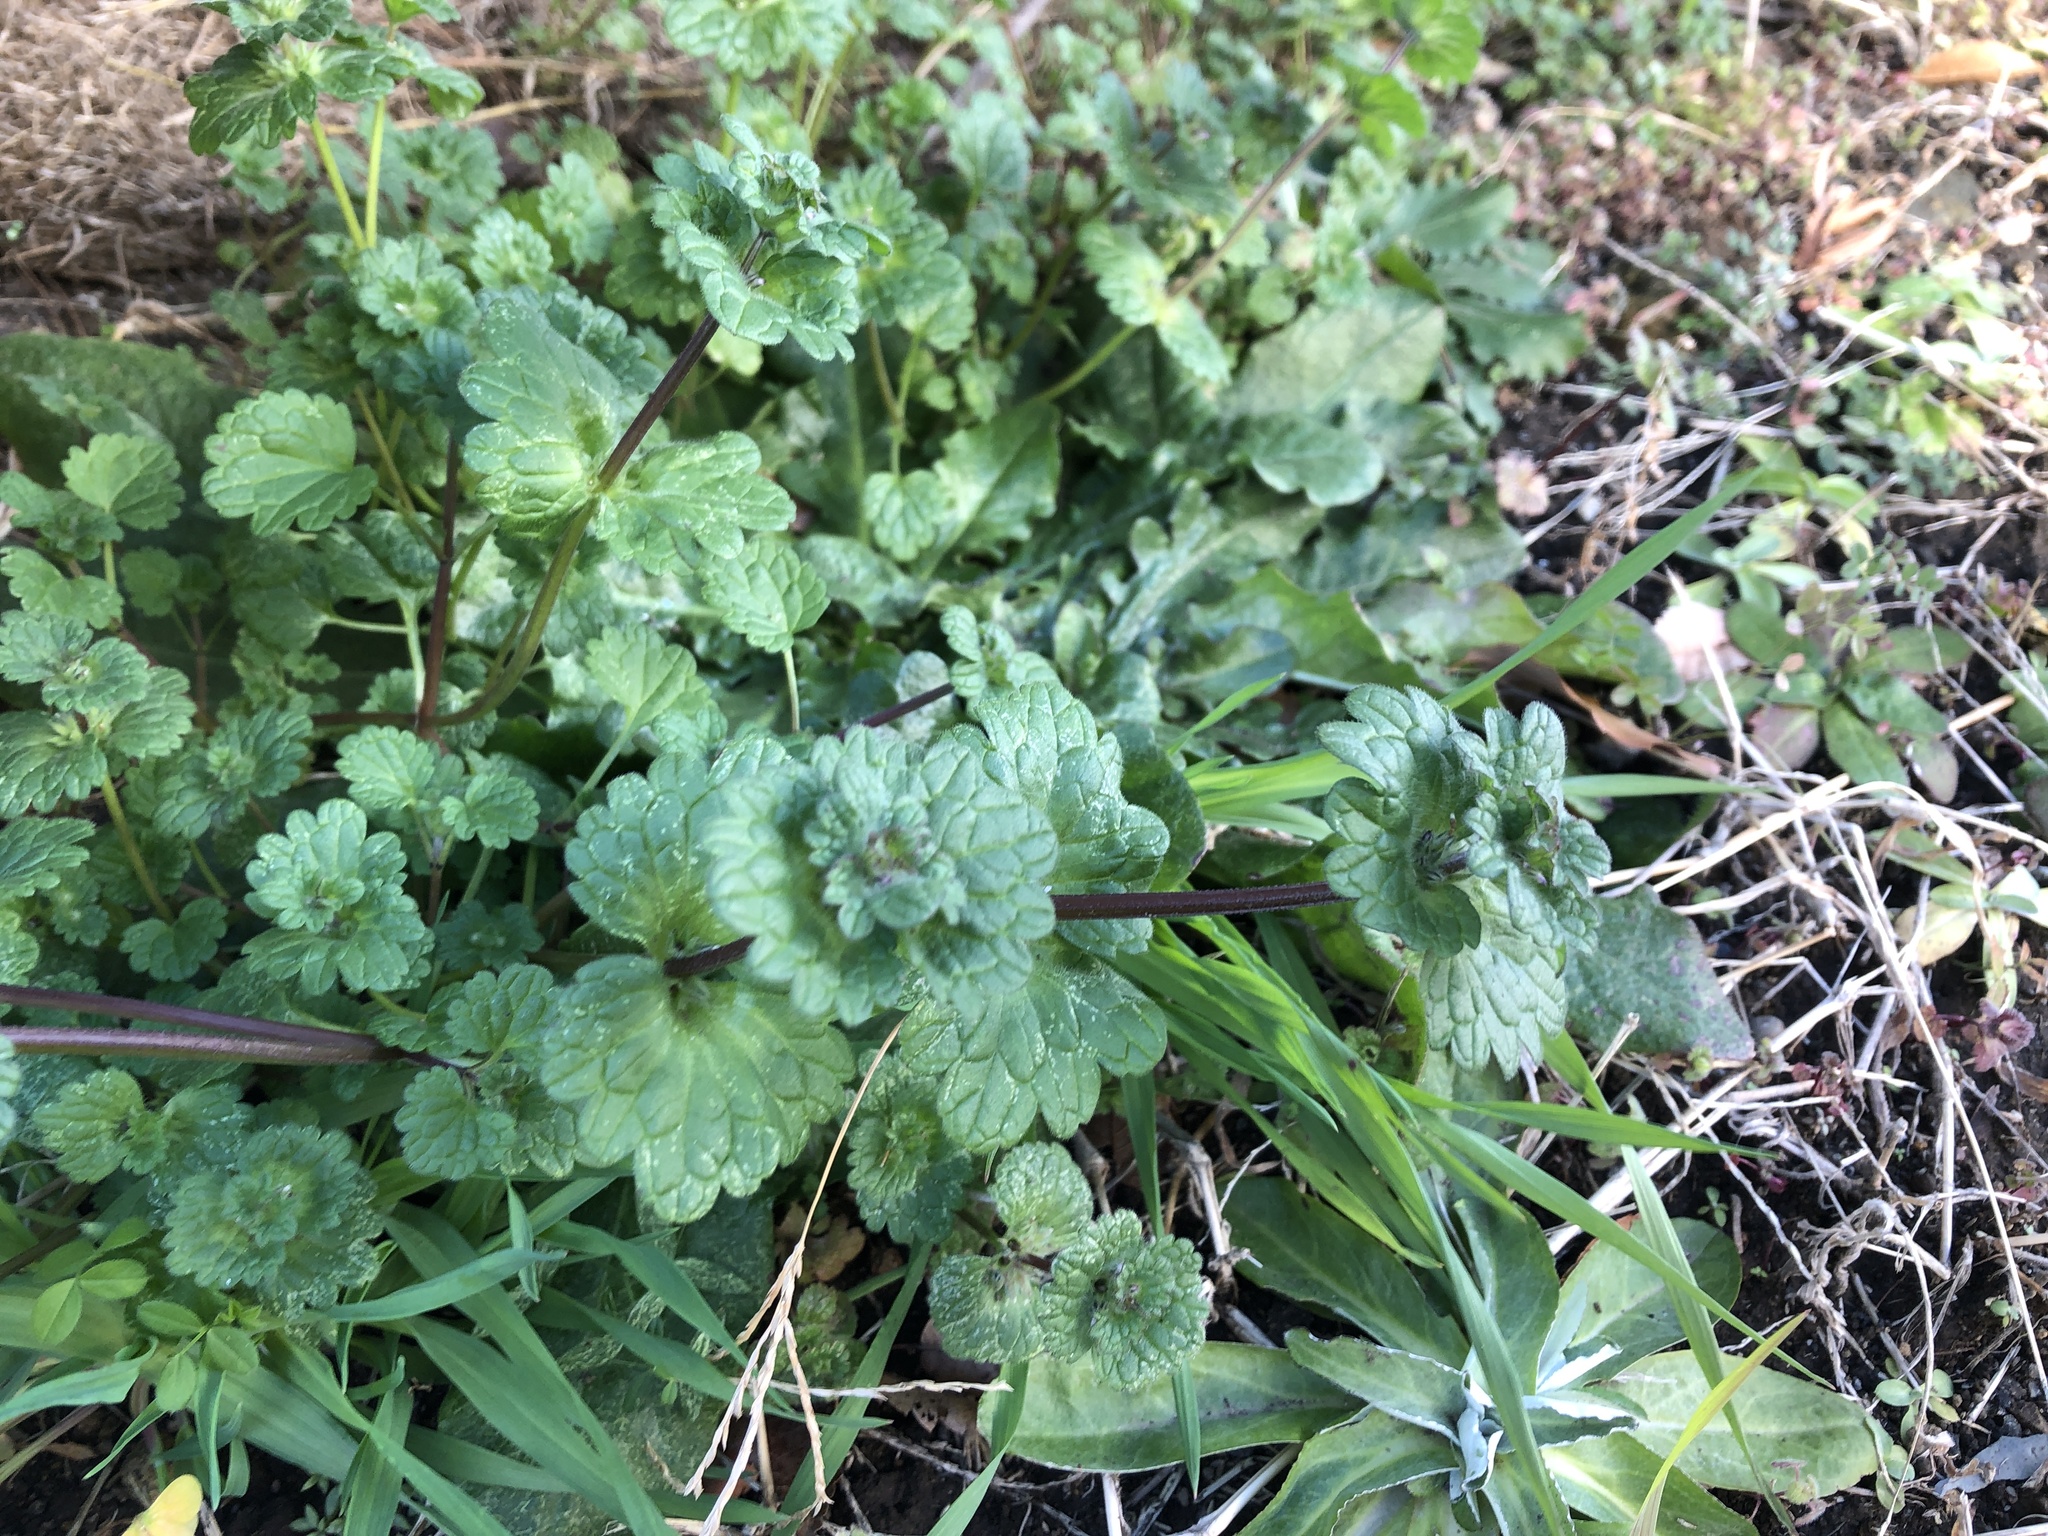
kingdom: Plantae
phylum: Tracheophyta
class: Magnoliopsida
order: Lamiales
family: Lamiaceae
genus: Lamium
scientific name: Lamium amplexicaule
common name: Henbit dead-nettle
